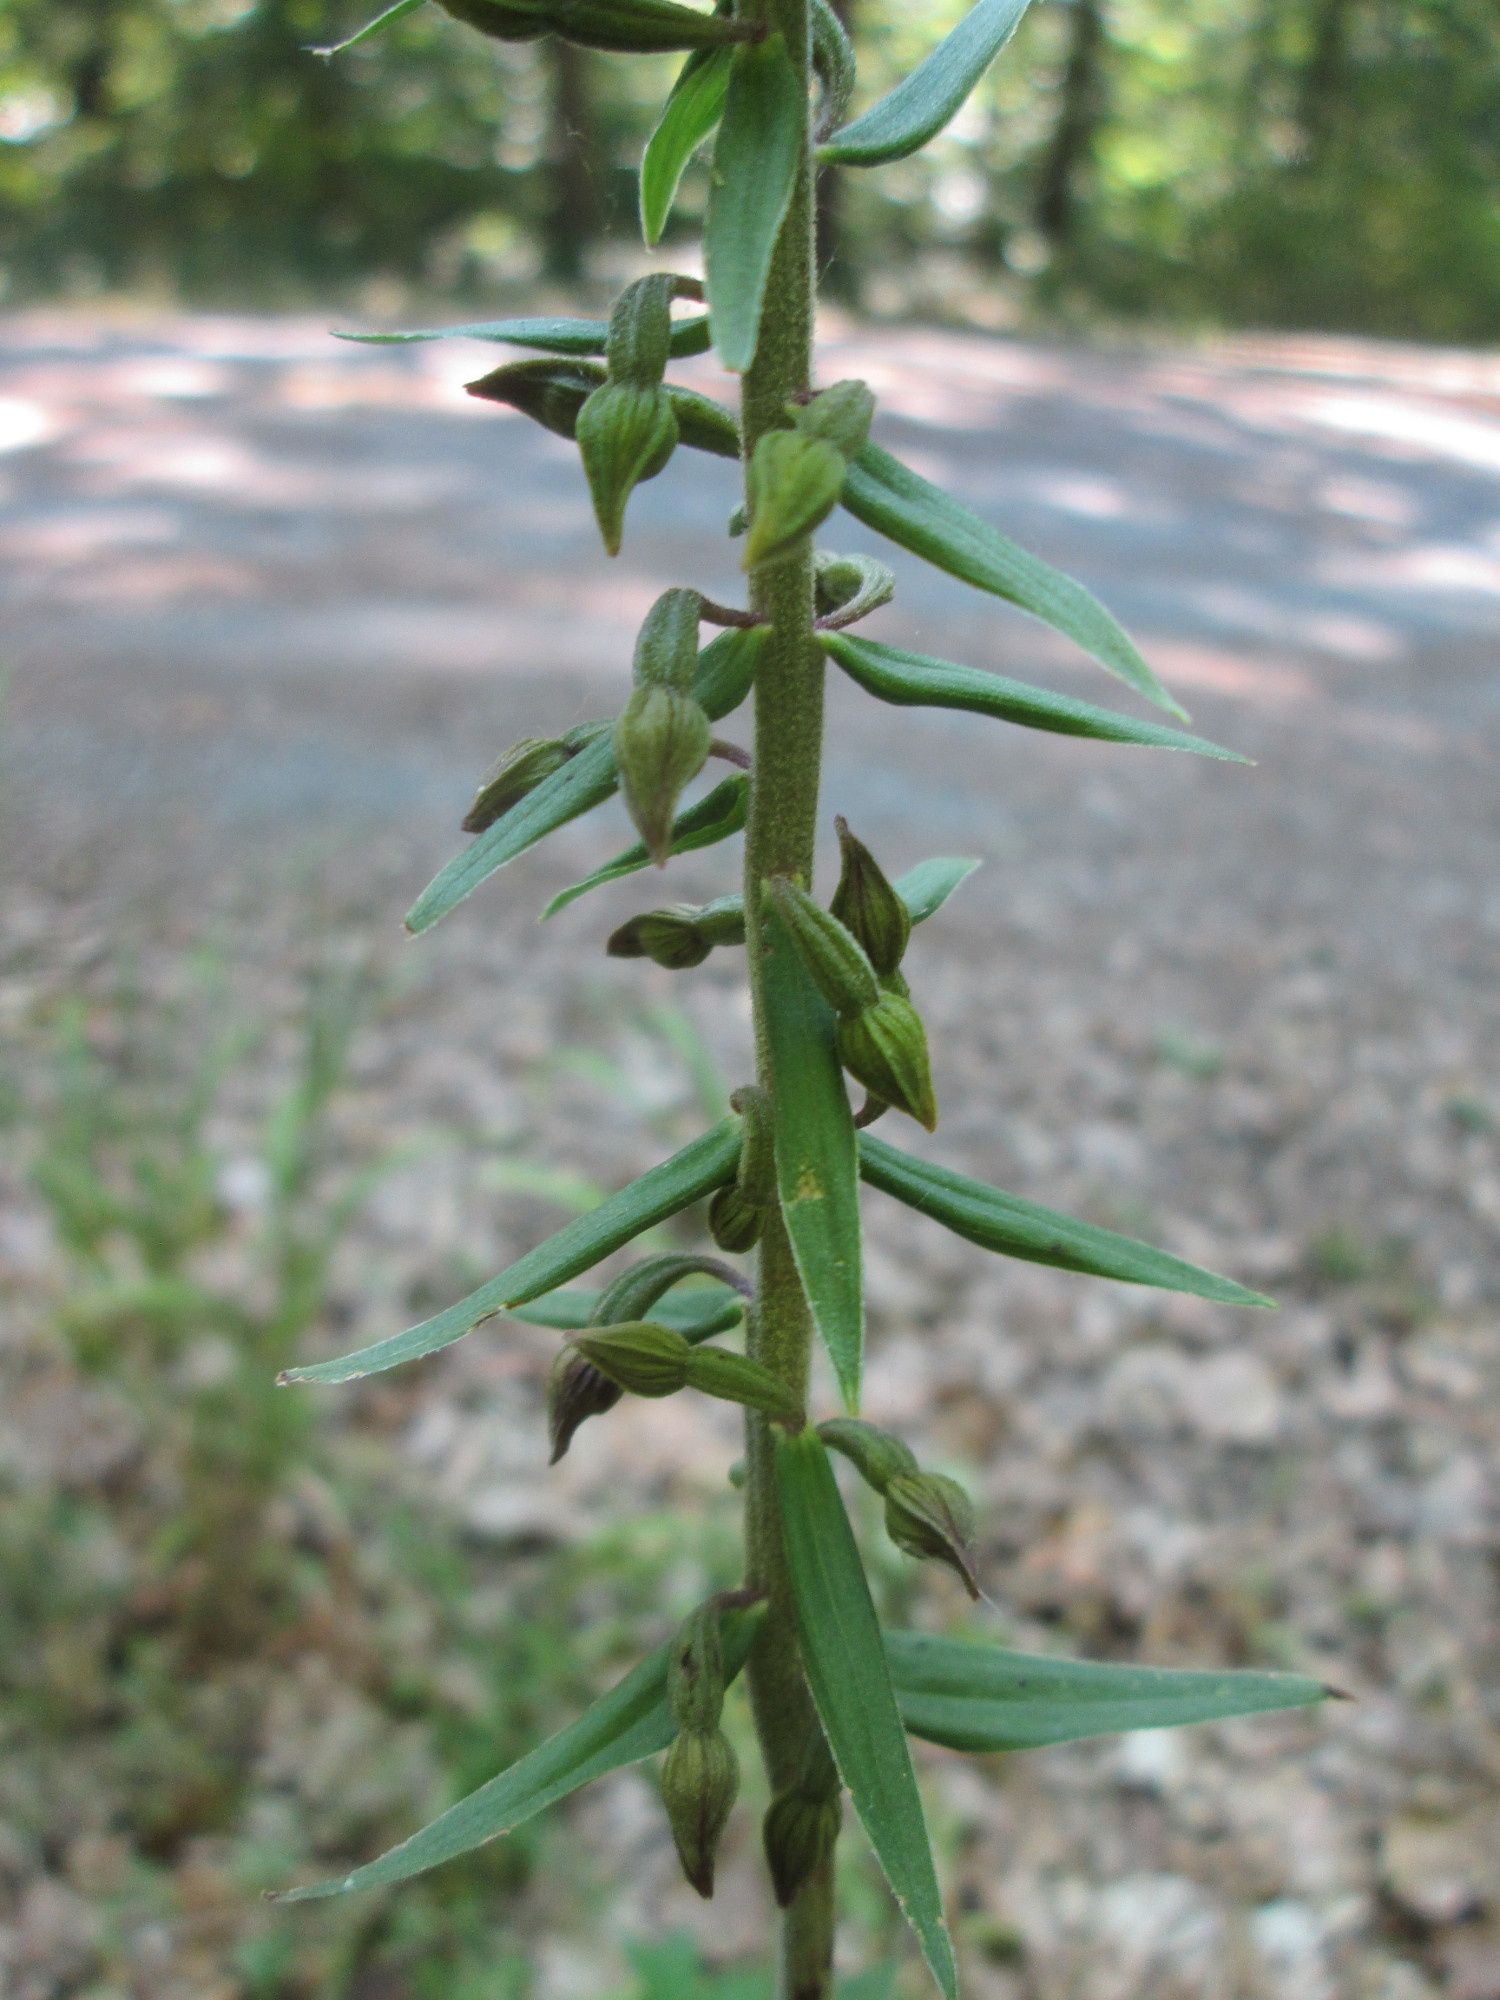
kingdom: Plantae
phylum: Tracheophyta
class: Liliopsida
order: Asparagales
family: Orchidaceae
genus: Epipactis
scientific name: Epipactis helleborine
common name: Broad-leaved helleborine
